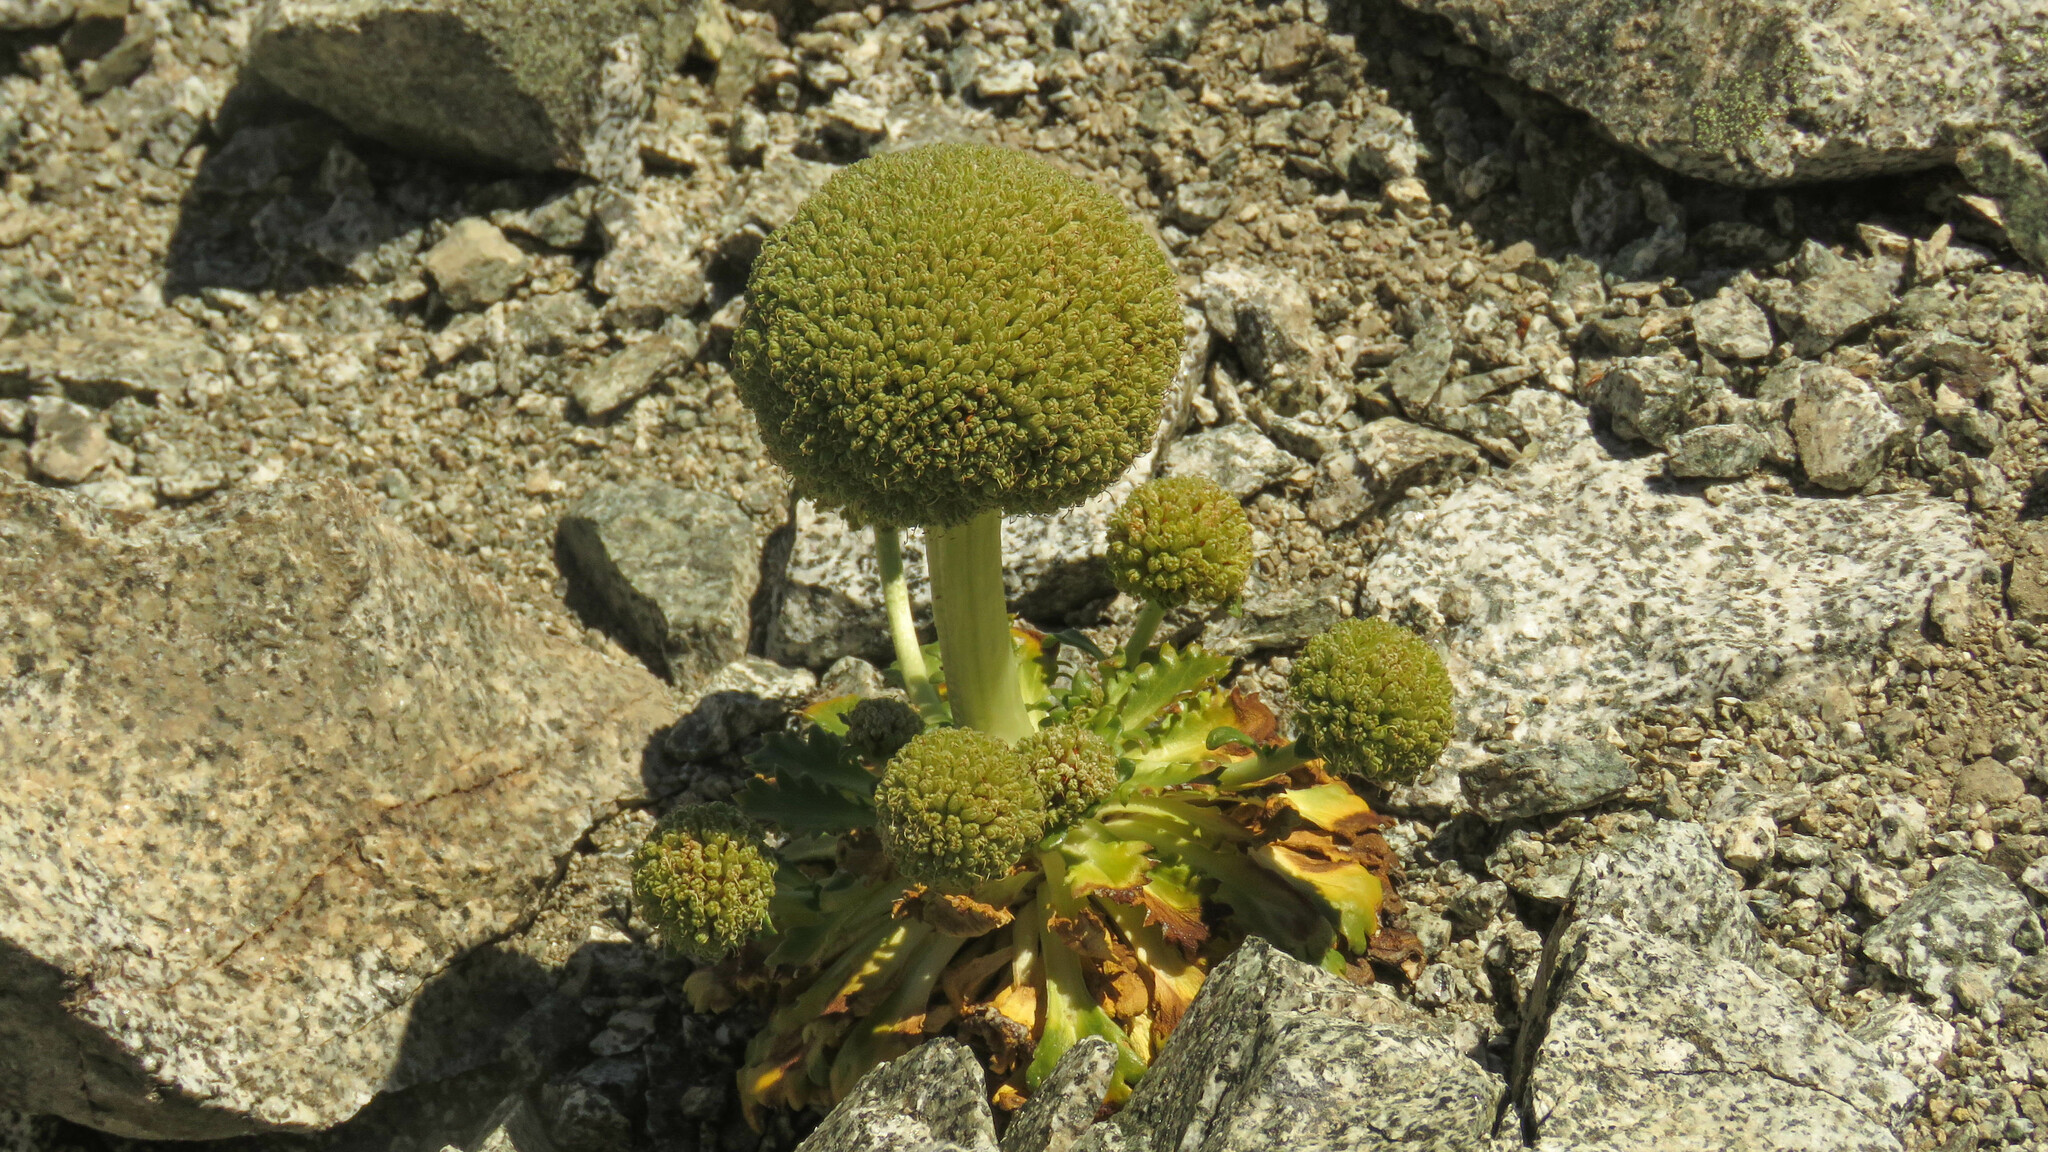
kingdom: Plantae
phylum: Tracheophyta
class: Magnoliopsida
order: Asterales
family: Calyceraceae
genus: Gamocarpha
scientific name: Gamocarpha macrocephala
